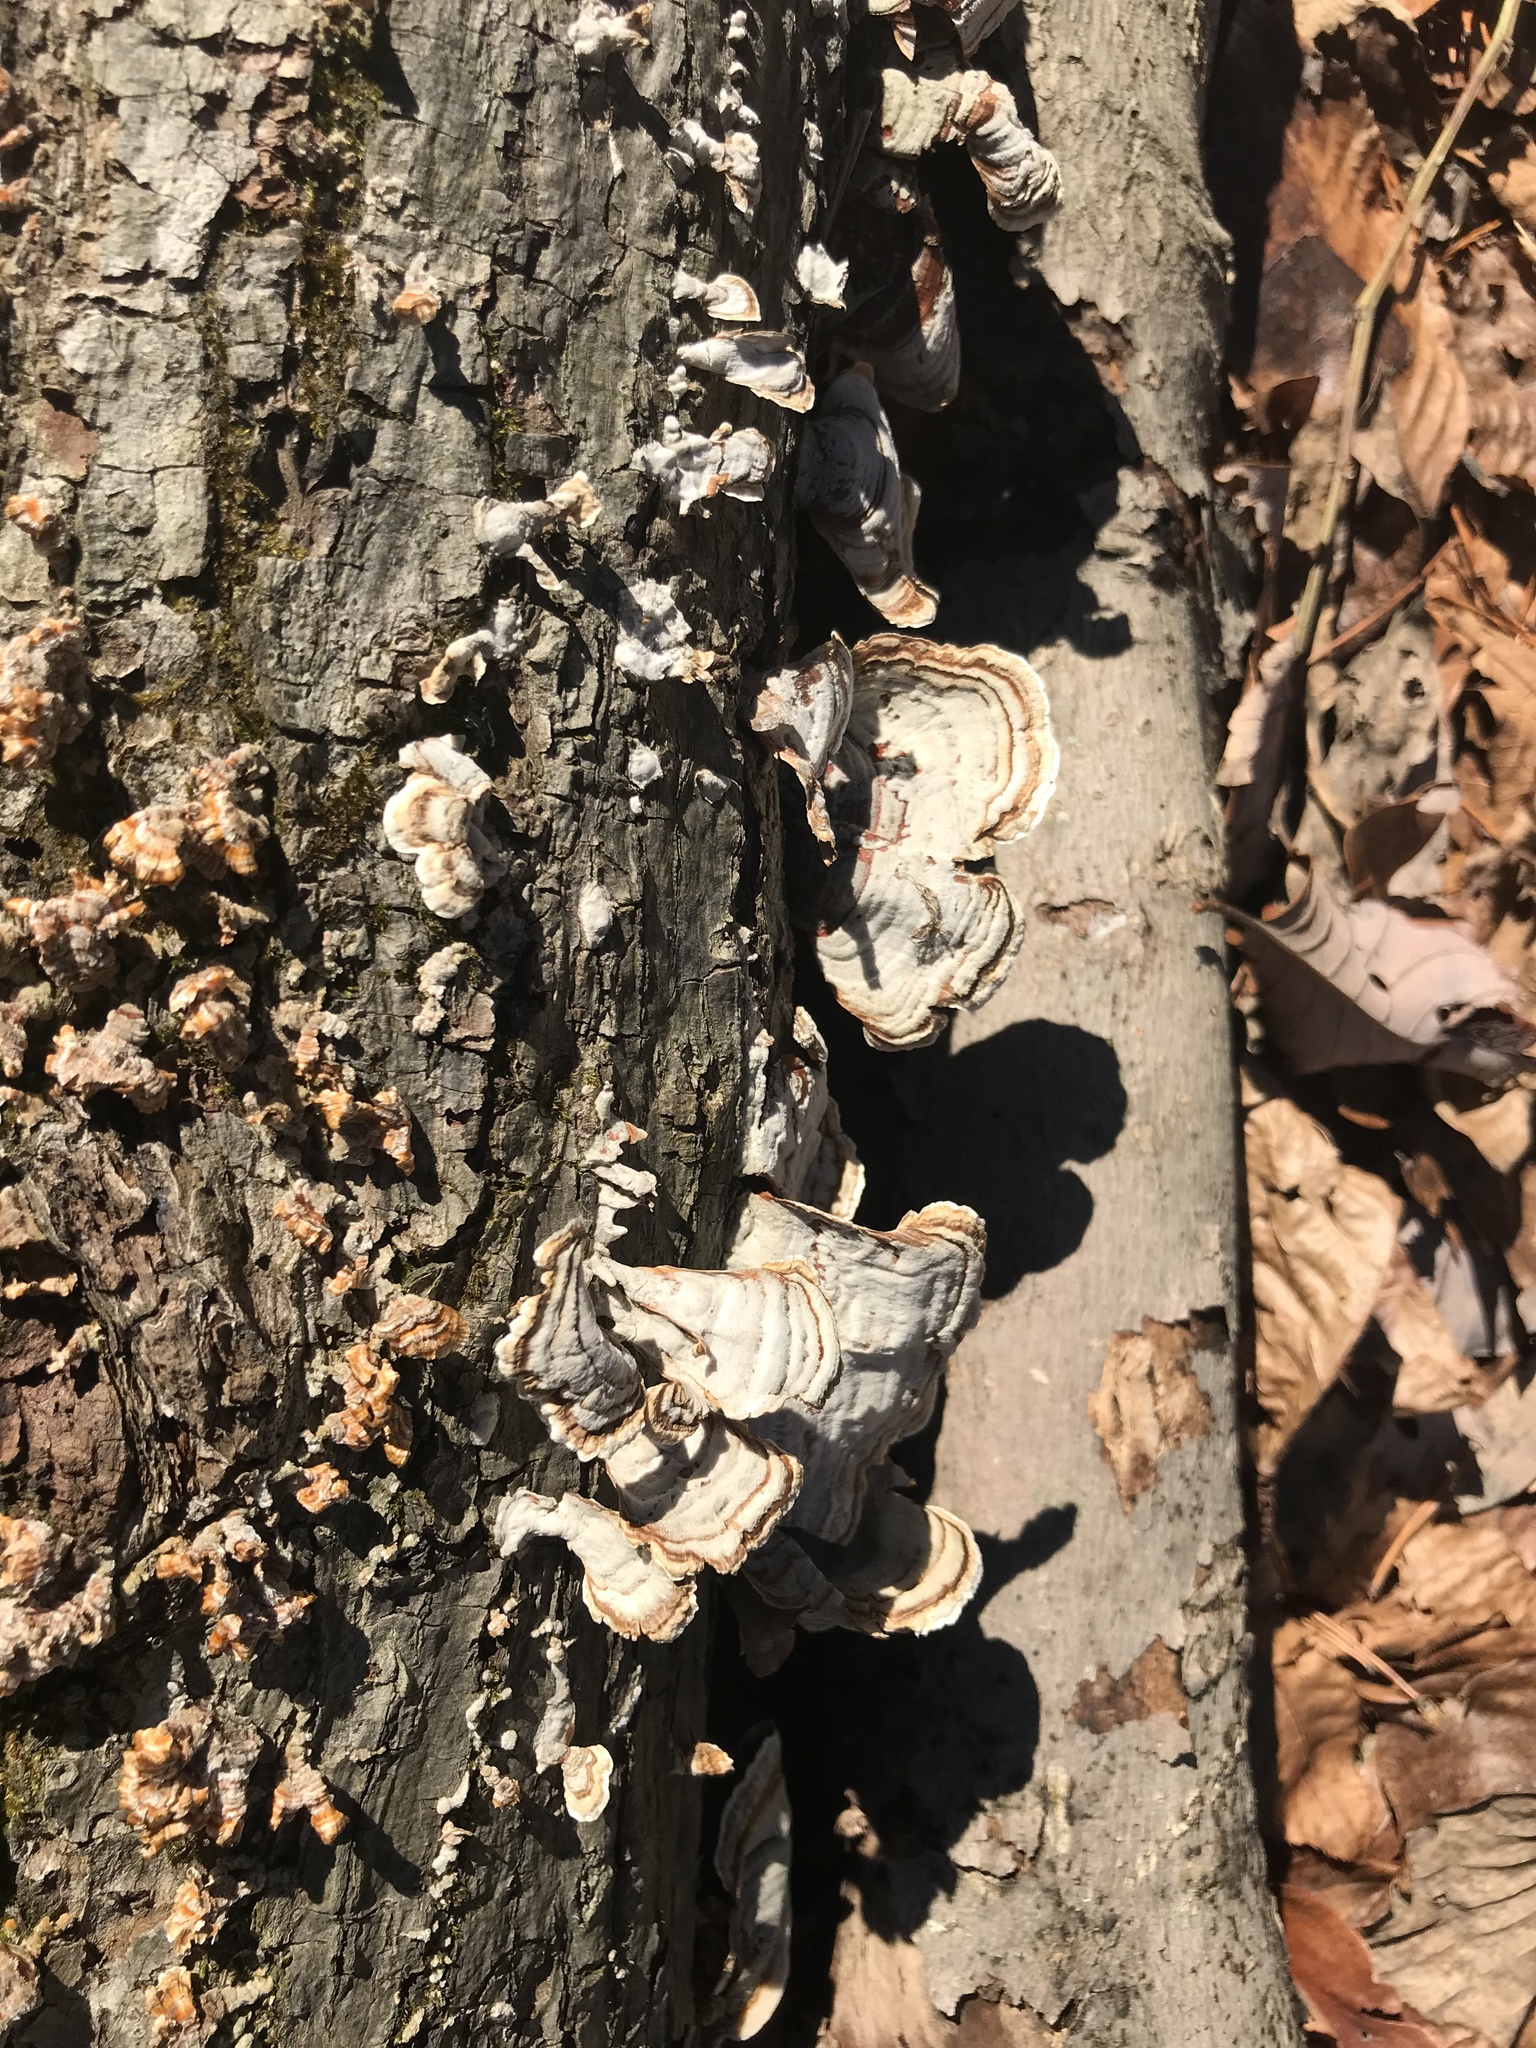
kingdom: Fungi
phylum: Basidiomycota
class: Agaricomycetes
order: Russulales
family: Stereaceae
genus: Stereum
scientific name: Stereum ostrea
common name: False turkeytail
